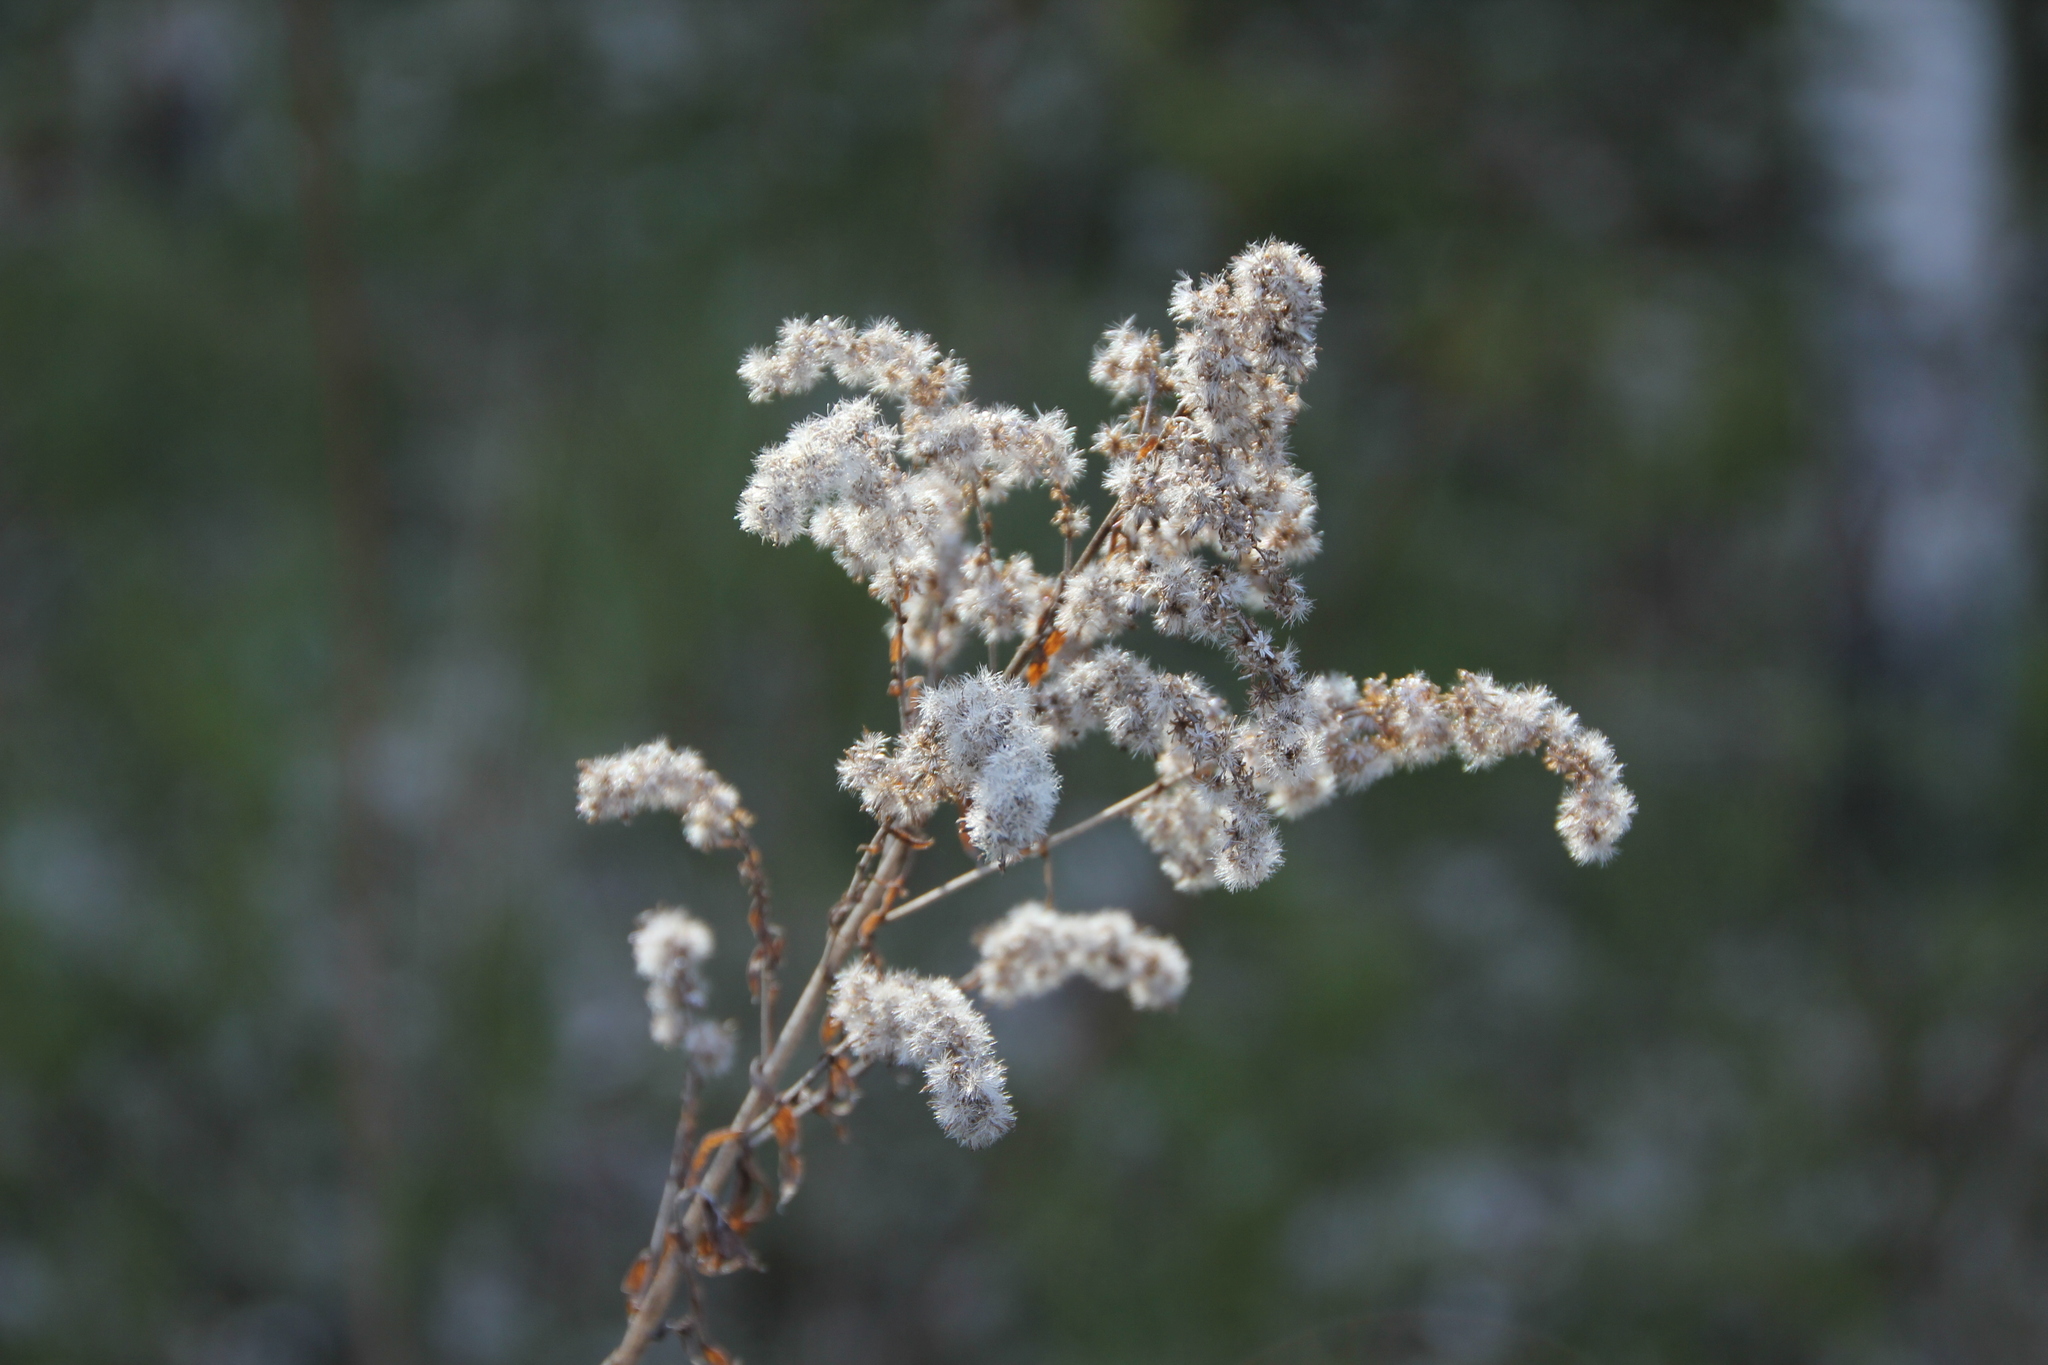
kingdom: Plantae
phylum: Tracheophyta
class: Magnoliopsida
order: Asterales
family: Asteraceae
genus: Solidago
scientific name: Solidago canadensis
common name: Canada goldenrod
